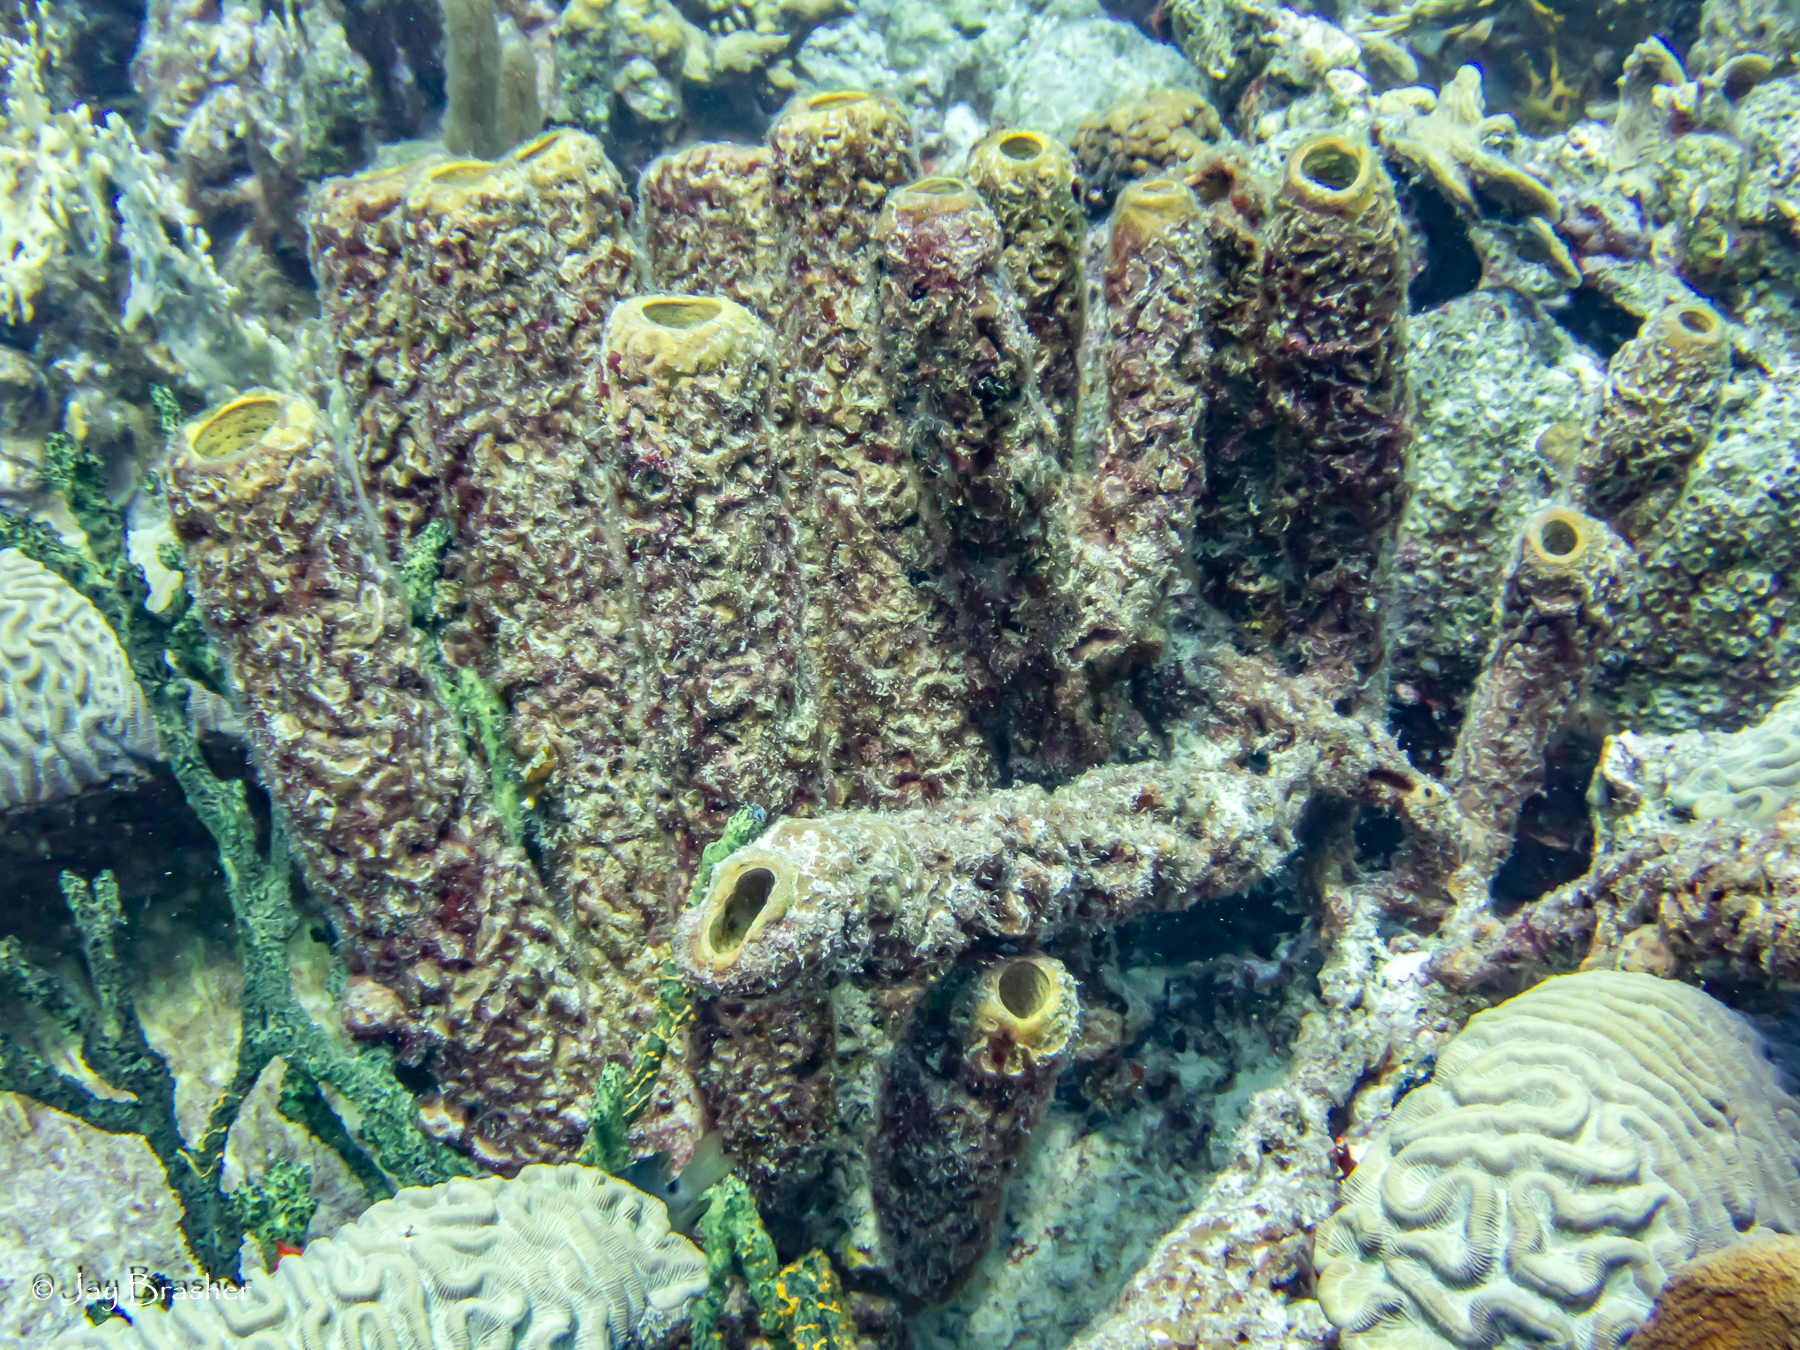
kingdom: Animalia
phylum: Porifera
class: Demospongiae
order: Verongiida
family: Aplysinidae
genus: Aplysina
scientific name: Aplysina archeri
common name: Stove-pipe sponge
